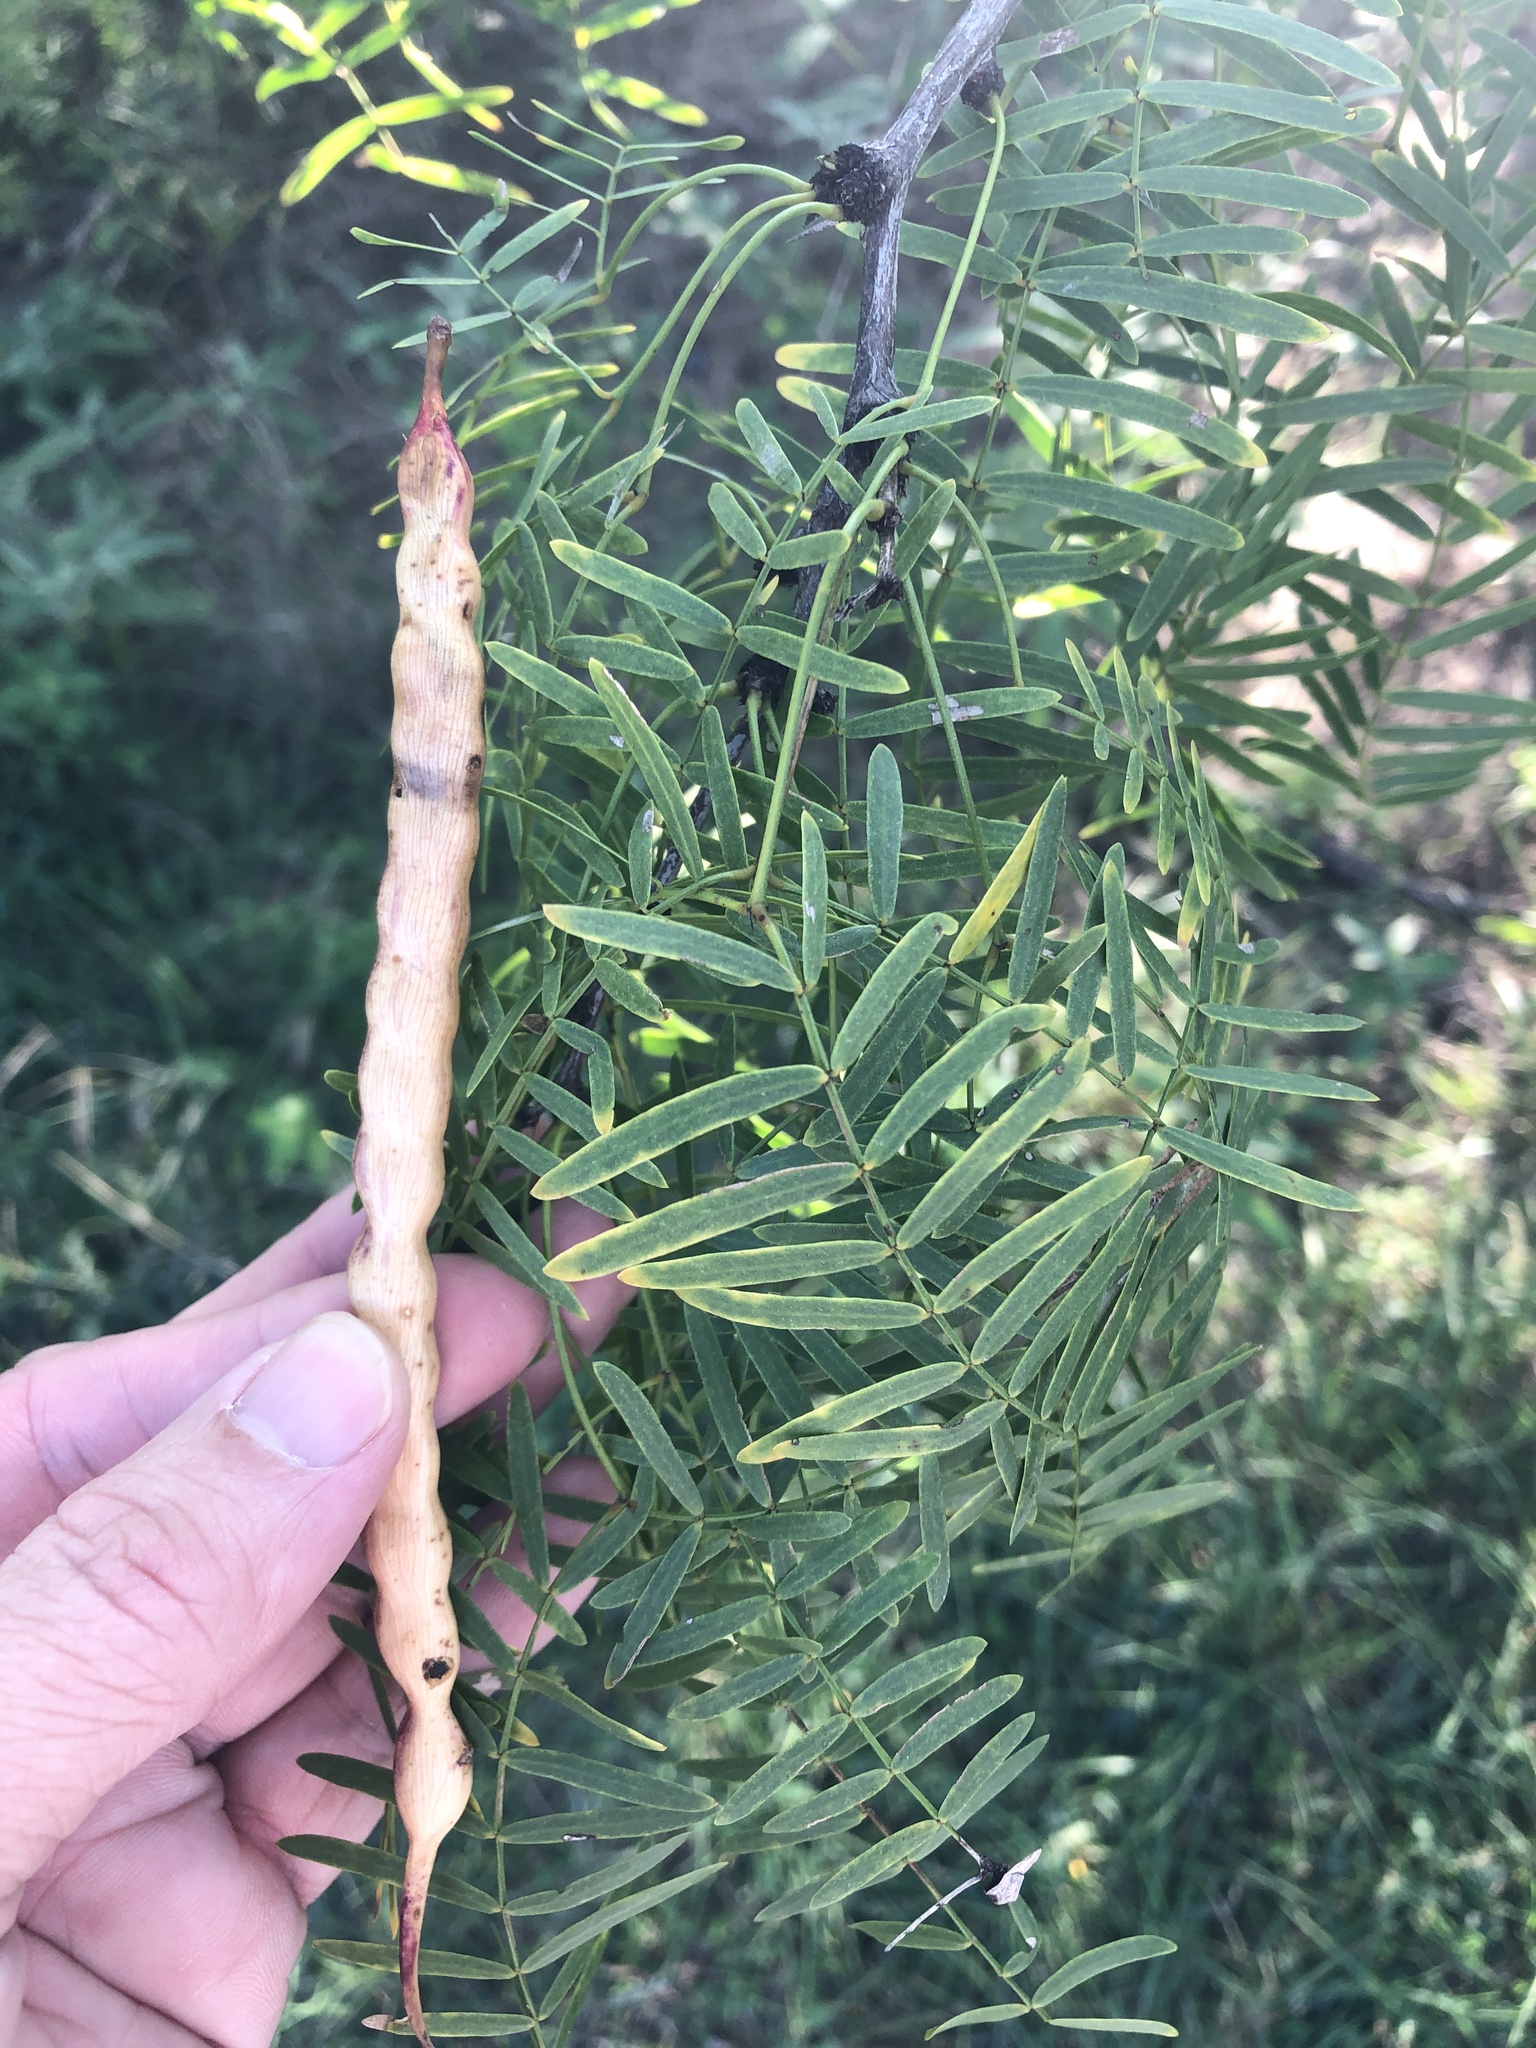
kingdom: Plantae
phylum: Tracheophyta
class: Magnoliopsida
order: Fabales
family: Fabaceae
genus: Prosopis
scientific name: Prosopis glandulosa
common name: Honey mesquite
